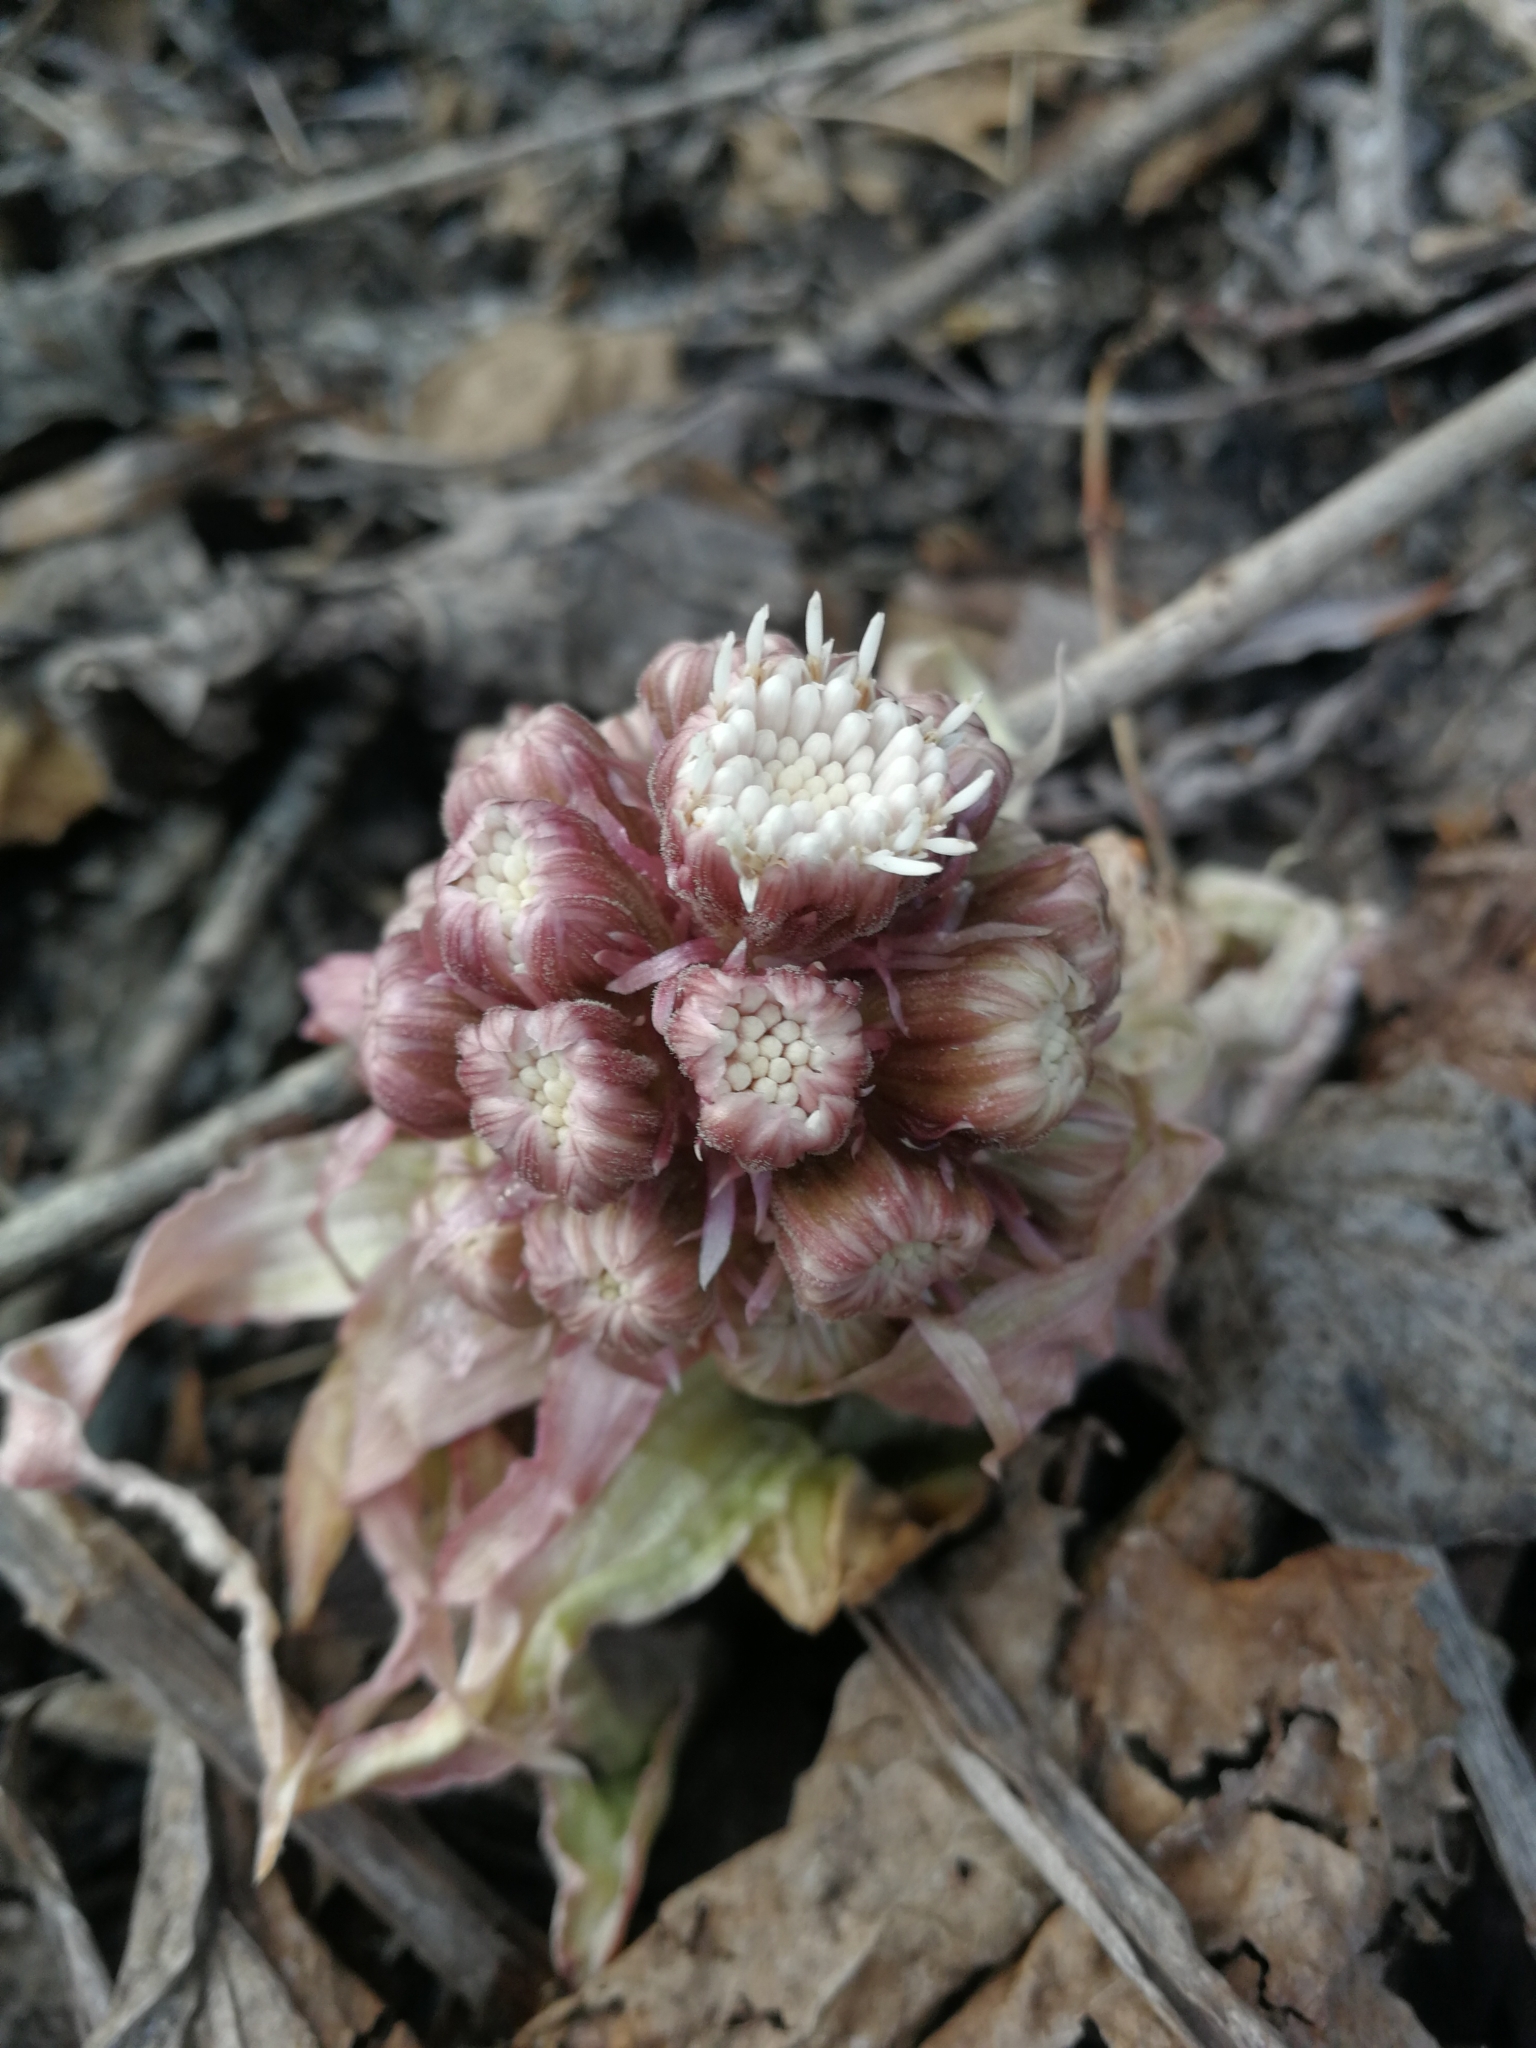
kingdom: Plantae
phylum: Tracheophyta
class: Magnoliopsida
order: Asterales
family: Asteraceae
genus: Petasites
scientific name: Petasites hybridus
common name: Butterbur
